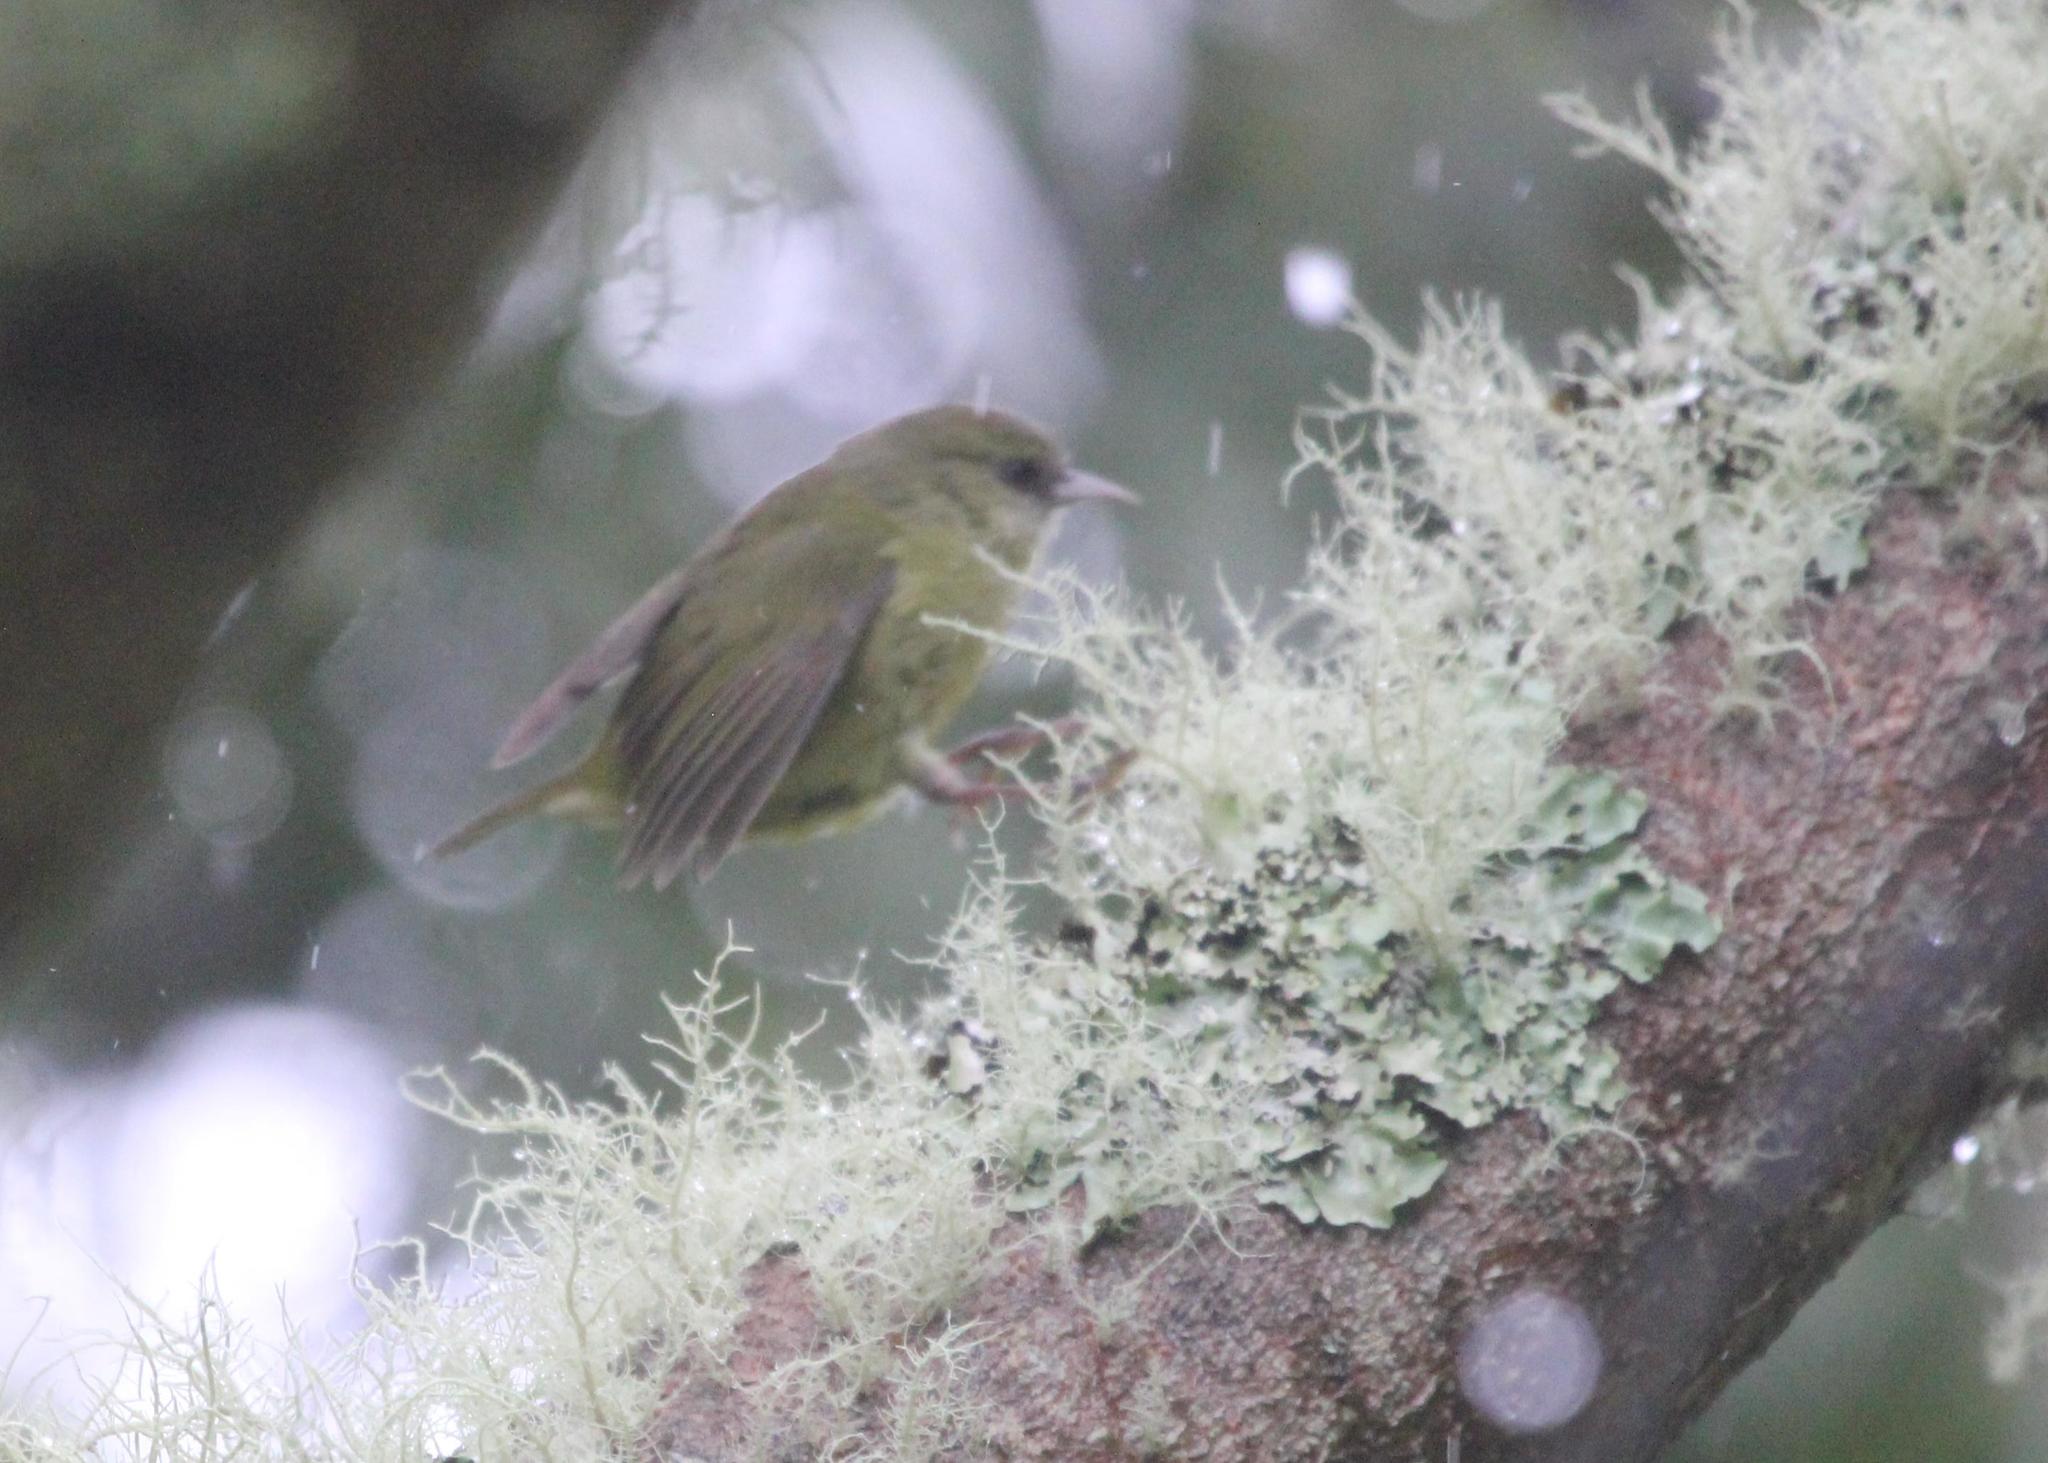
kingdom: Animalia
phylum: Chordata
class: Aves
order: Passeriformes
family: Fringillidae
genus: Loxops
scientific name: Loxops mana
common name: Hawaii creeper
